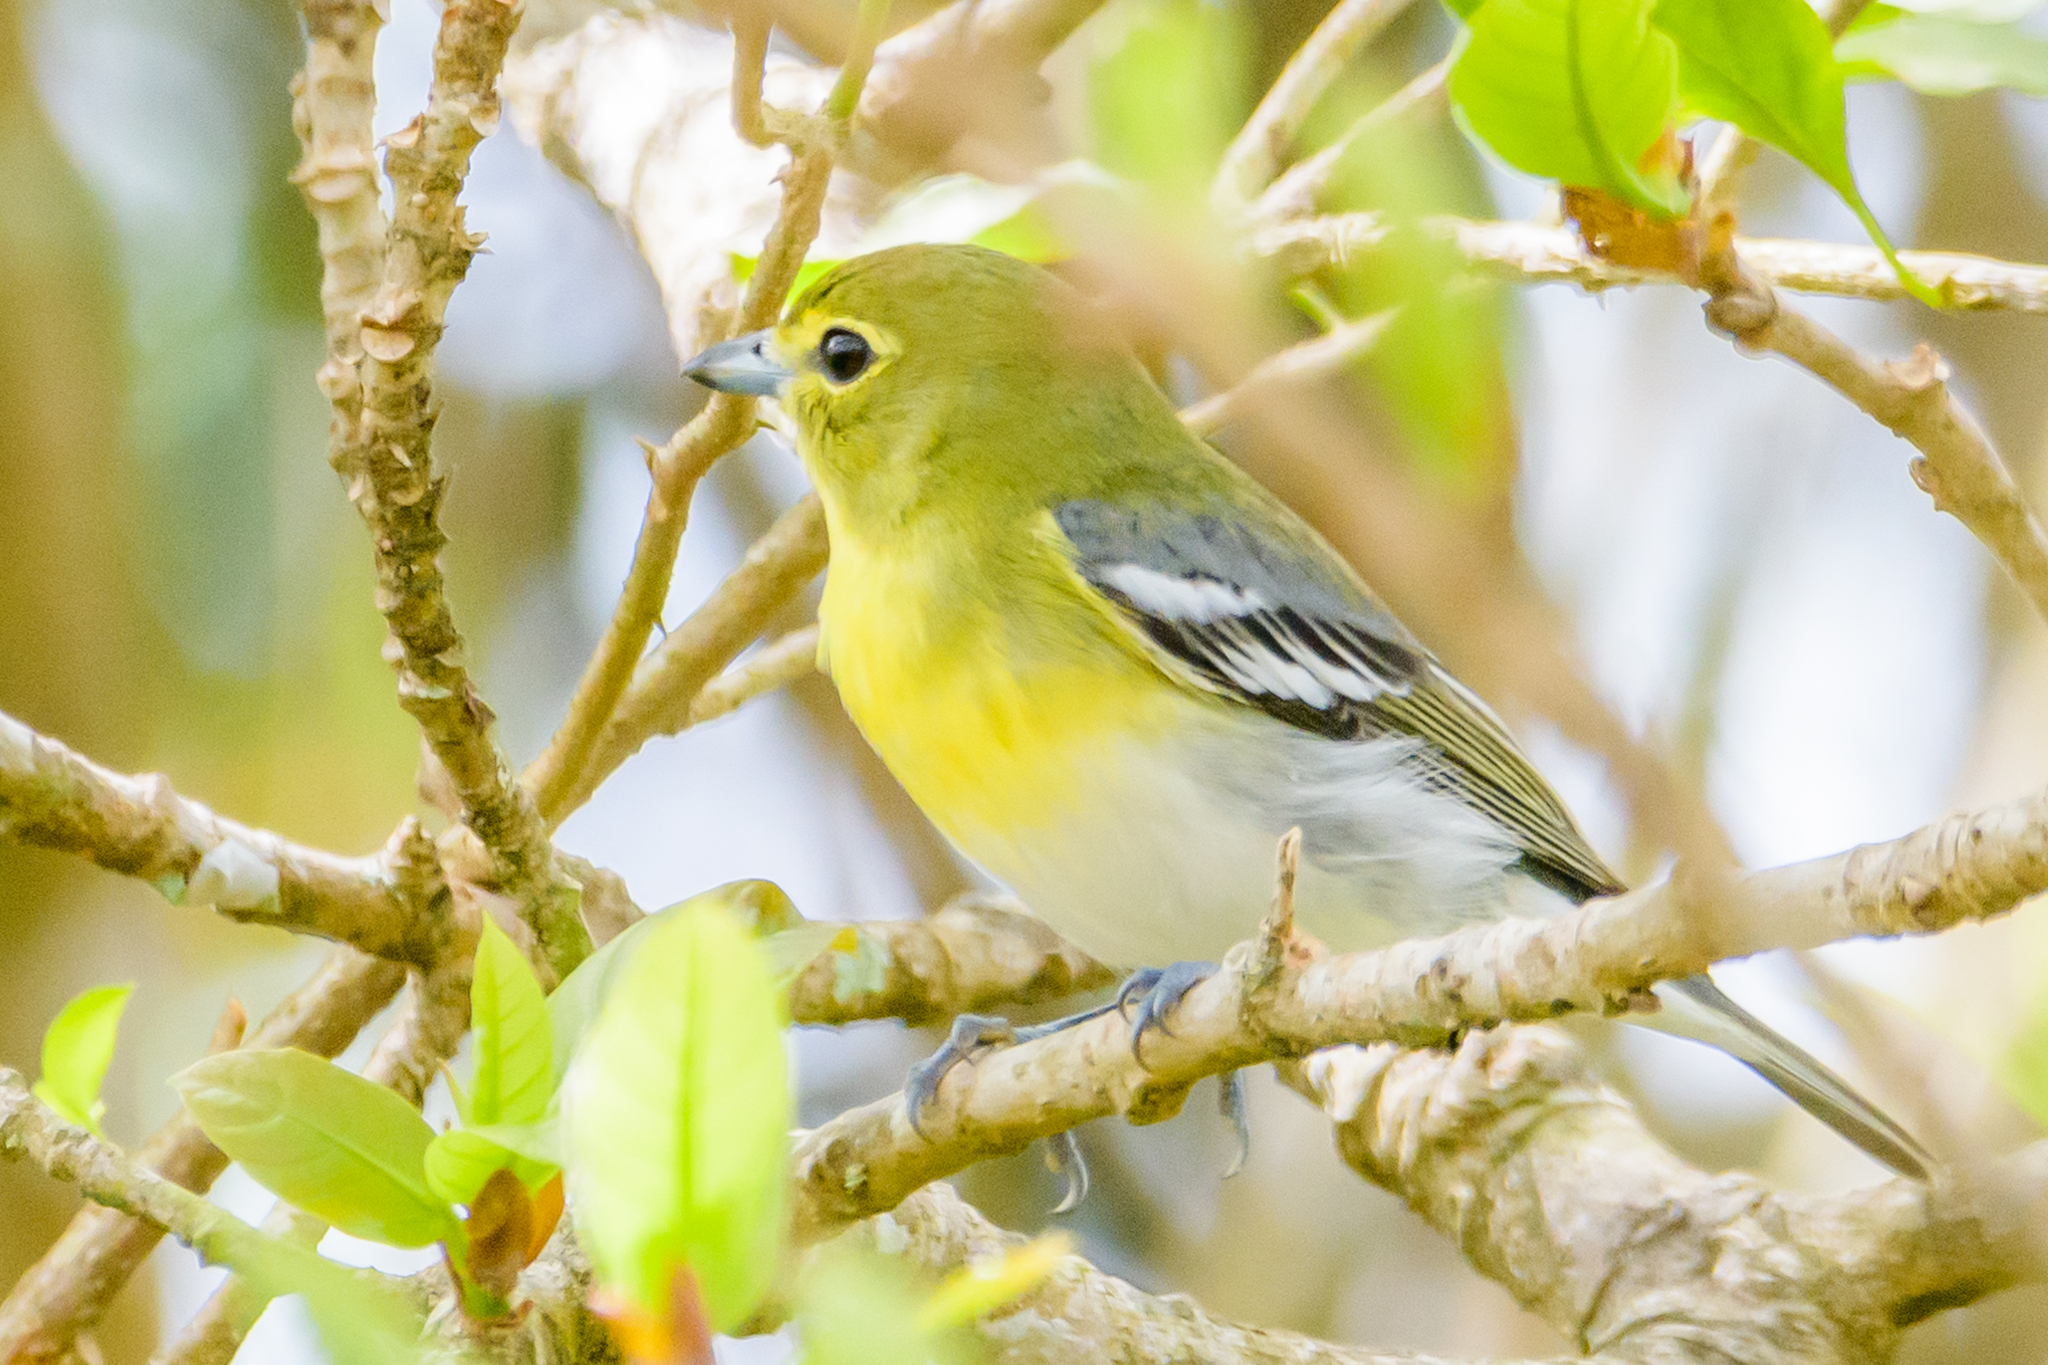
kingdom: Animalia
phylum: Chordata
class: Aves
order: Passeriformes
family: Vireonidae
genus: Vireo
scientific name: Vireo flavifrons
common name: Yellow-throated vireo
